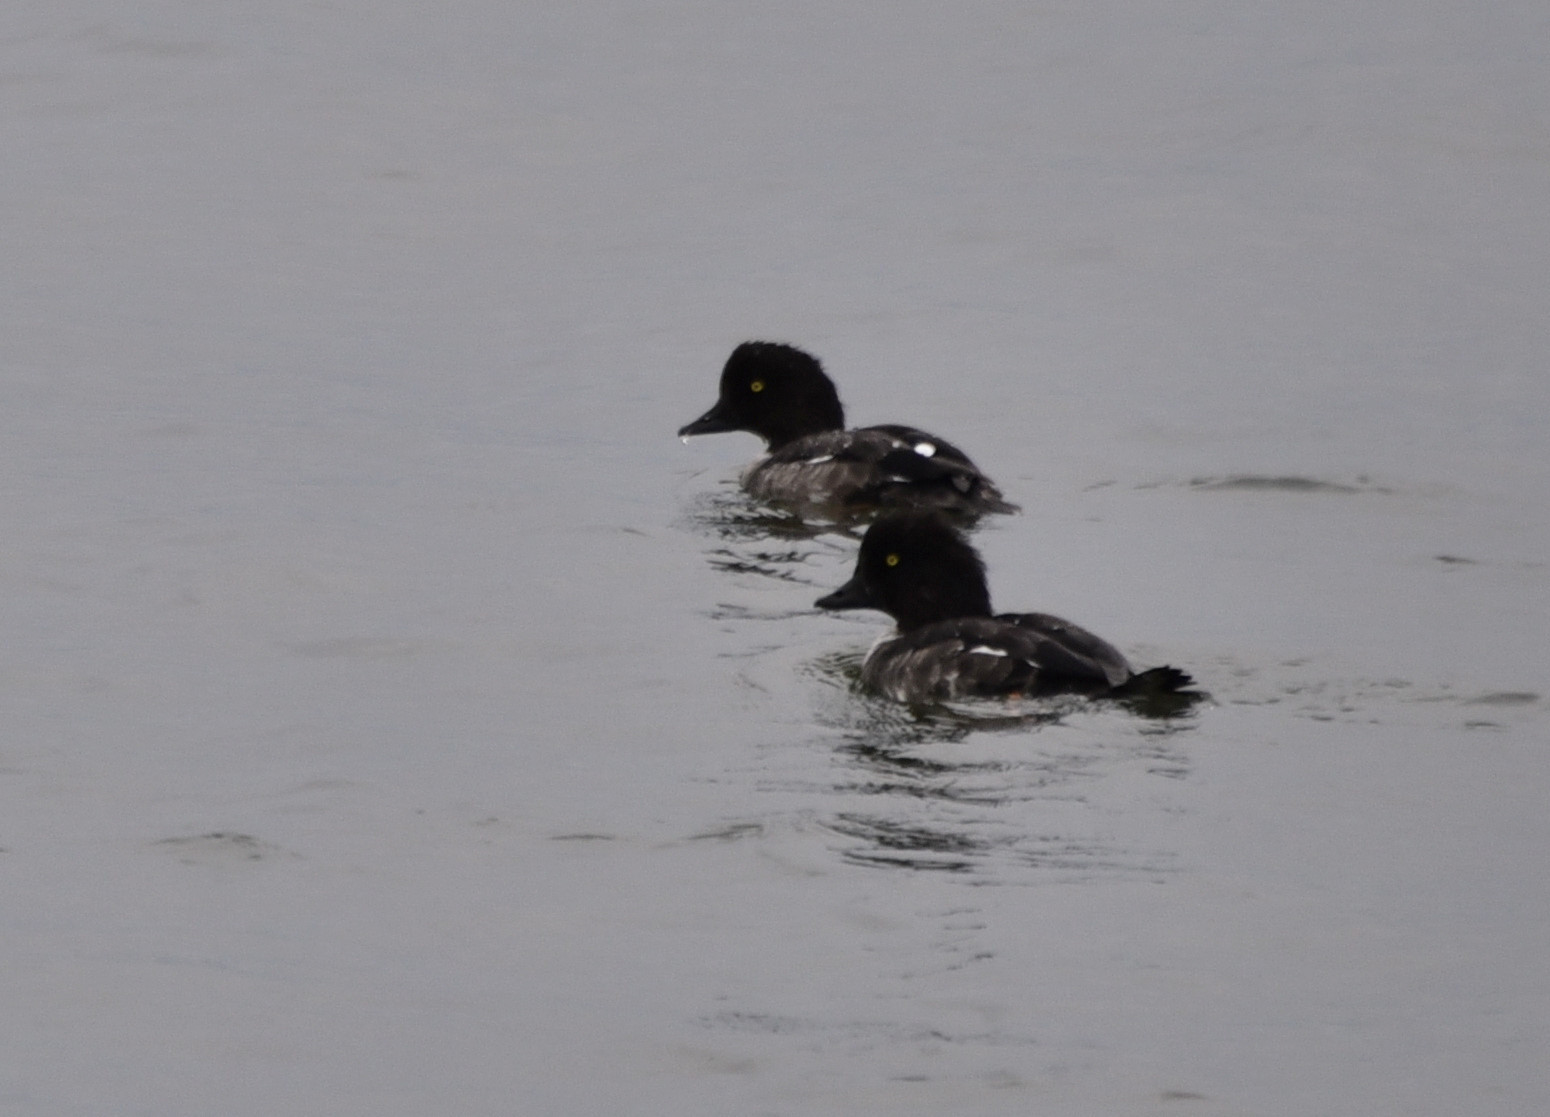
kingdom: Animalia
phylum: Chordata
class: Aves
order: Anseriformes
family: Anatidae
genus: Bucephala
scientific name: Bucephala islandica
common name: Barrow's goldeneye
